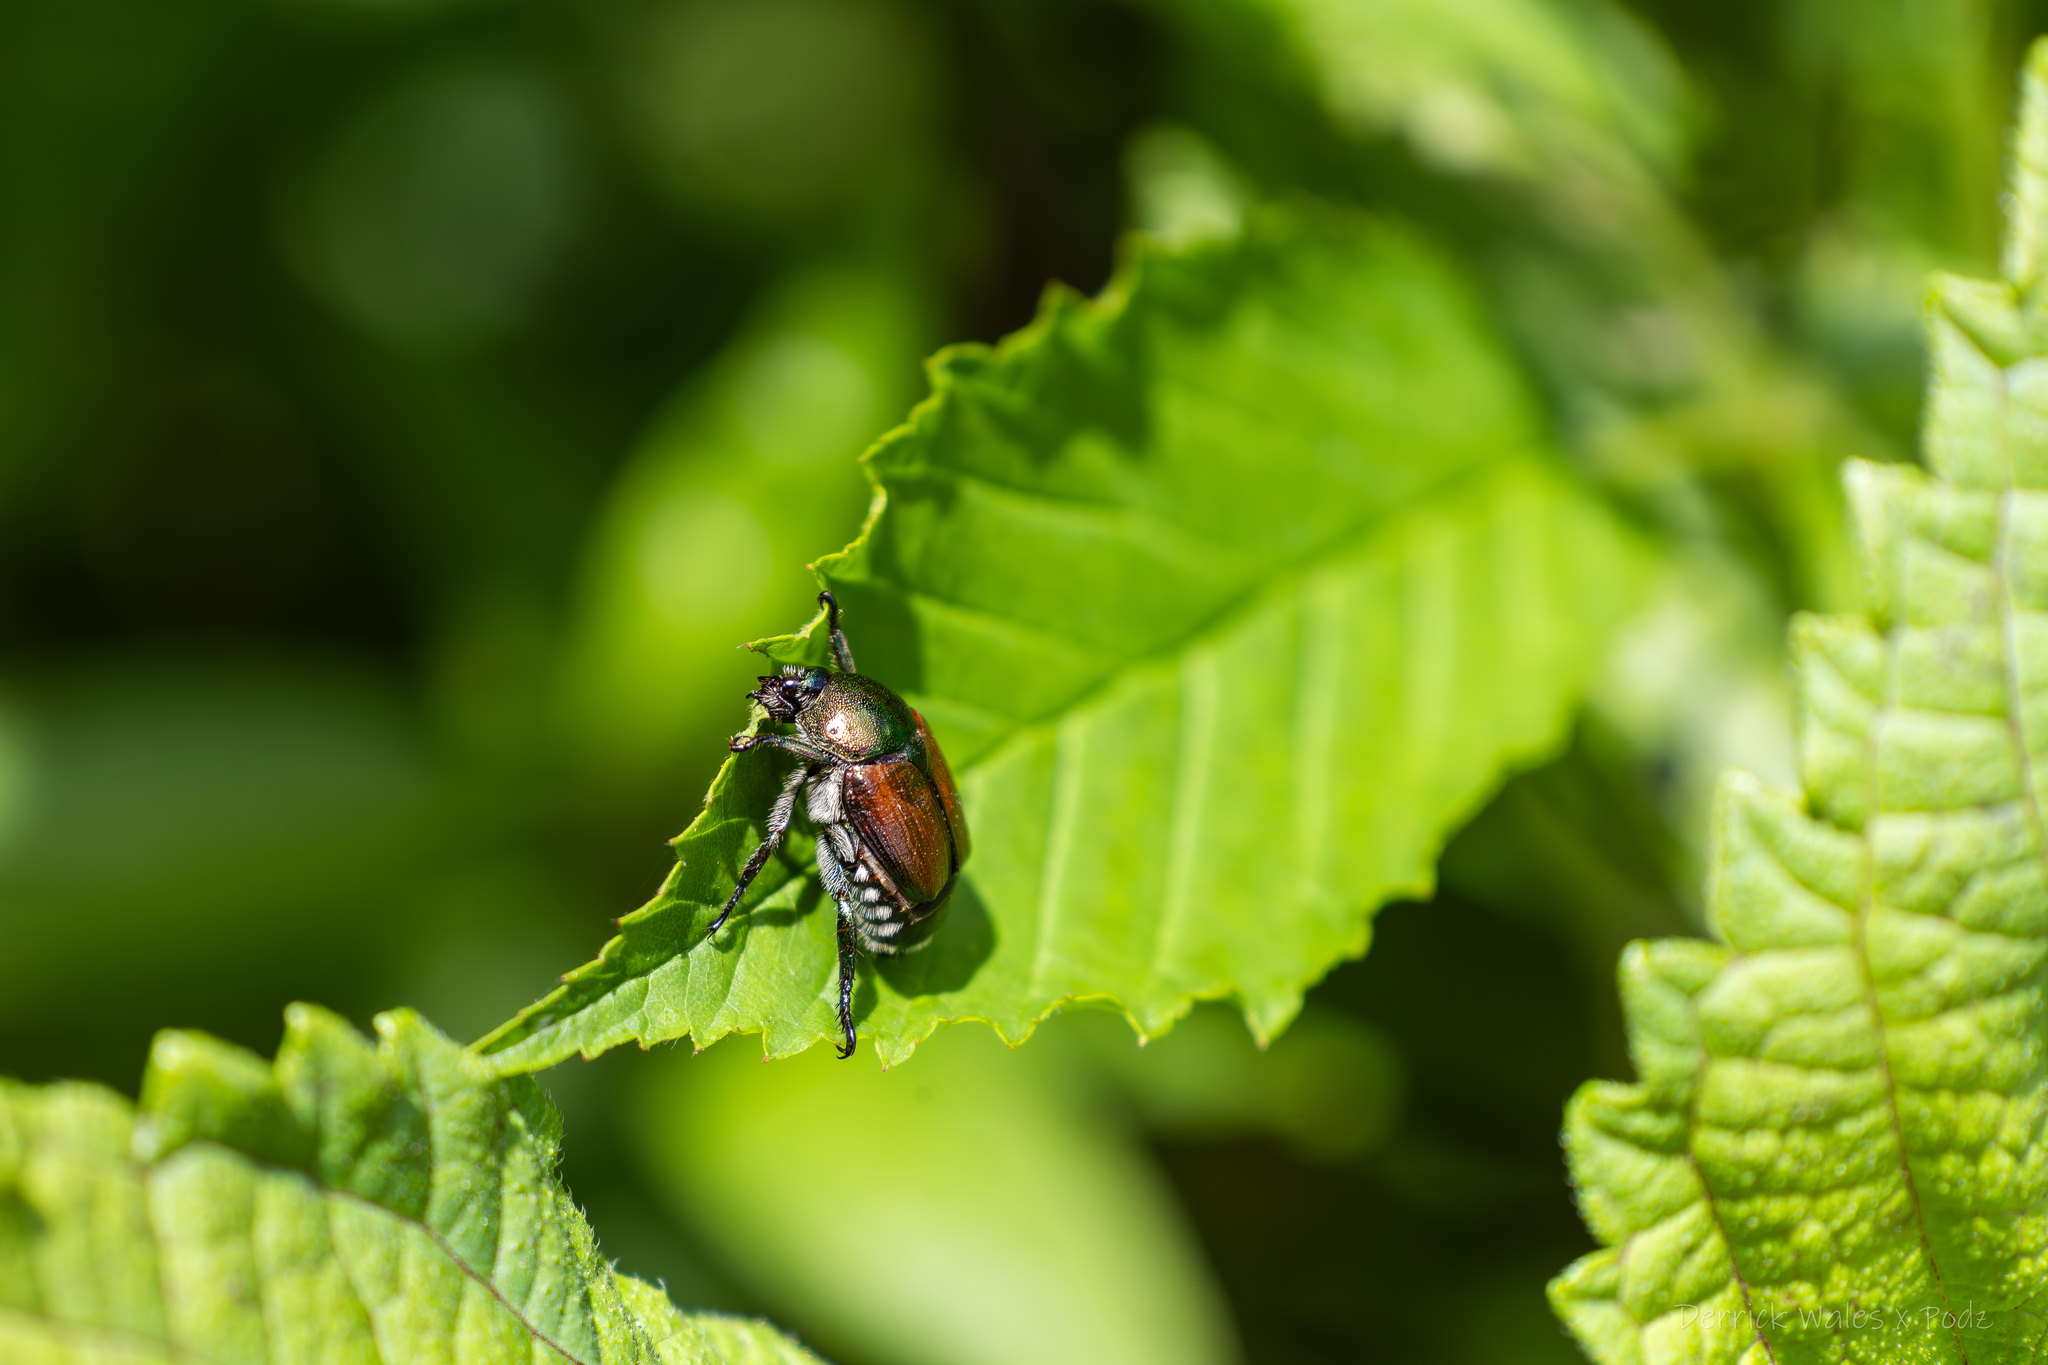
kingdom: Animalia
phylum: Arthropoda
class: Insecta
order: Coleoptera
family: Scarabaeidae
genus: Popillia
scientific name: Popillia japonica
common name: Japanese beetle
